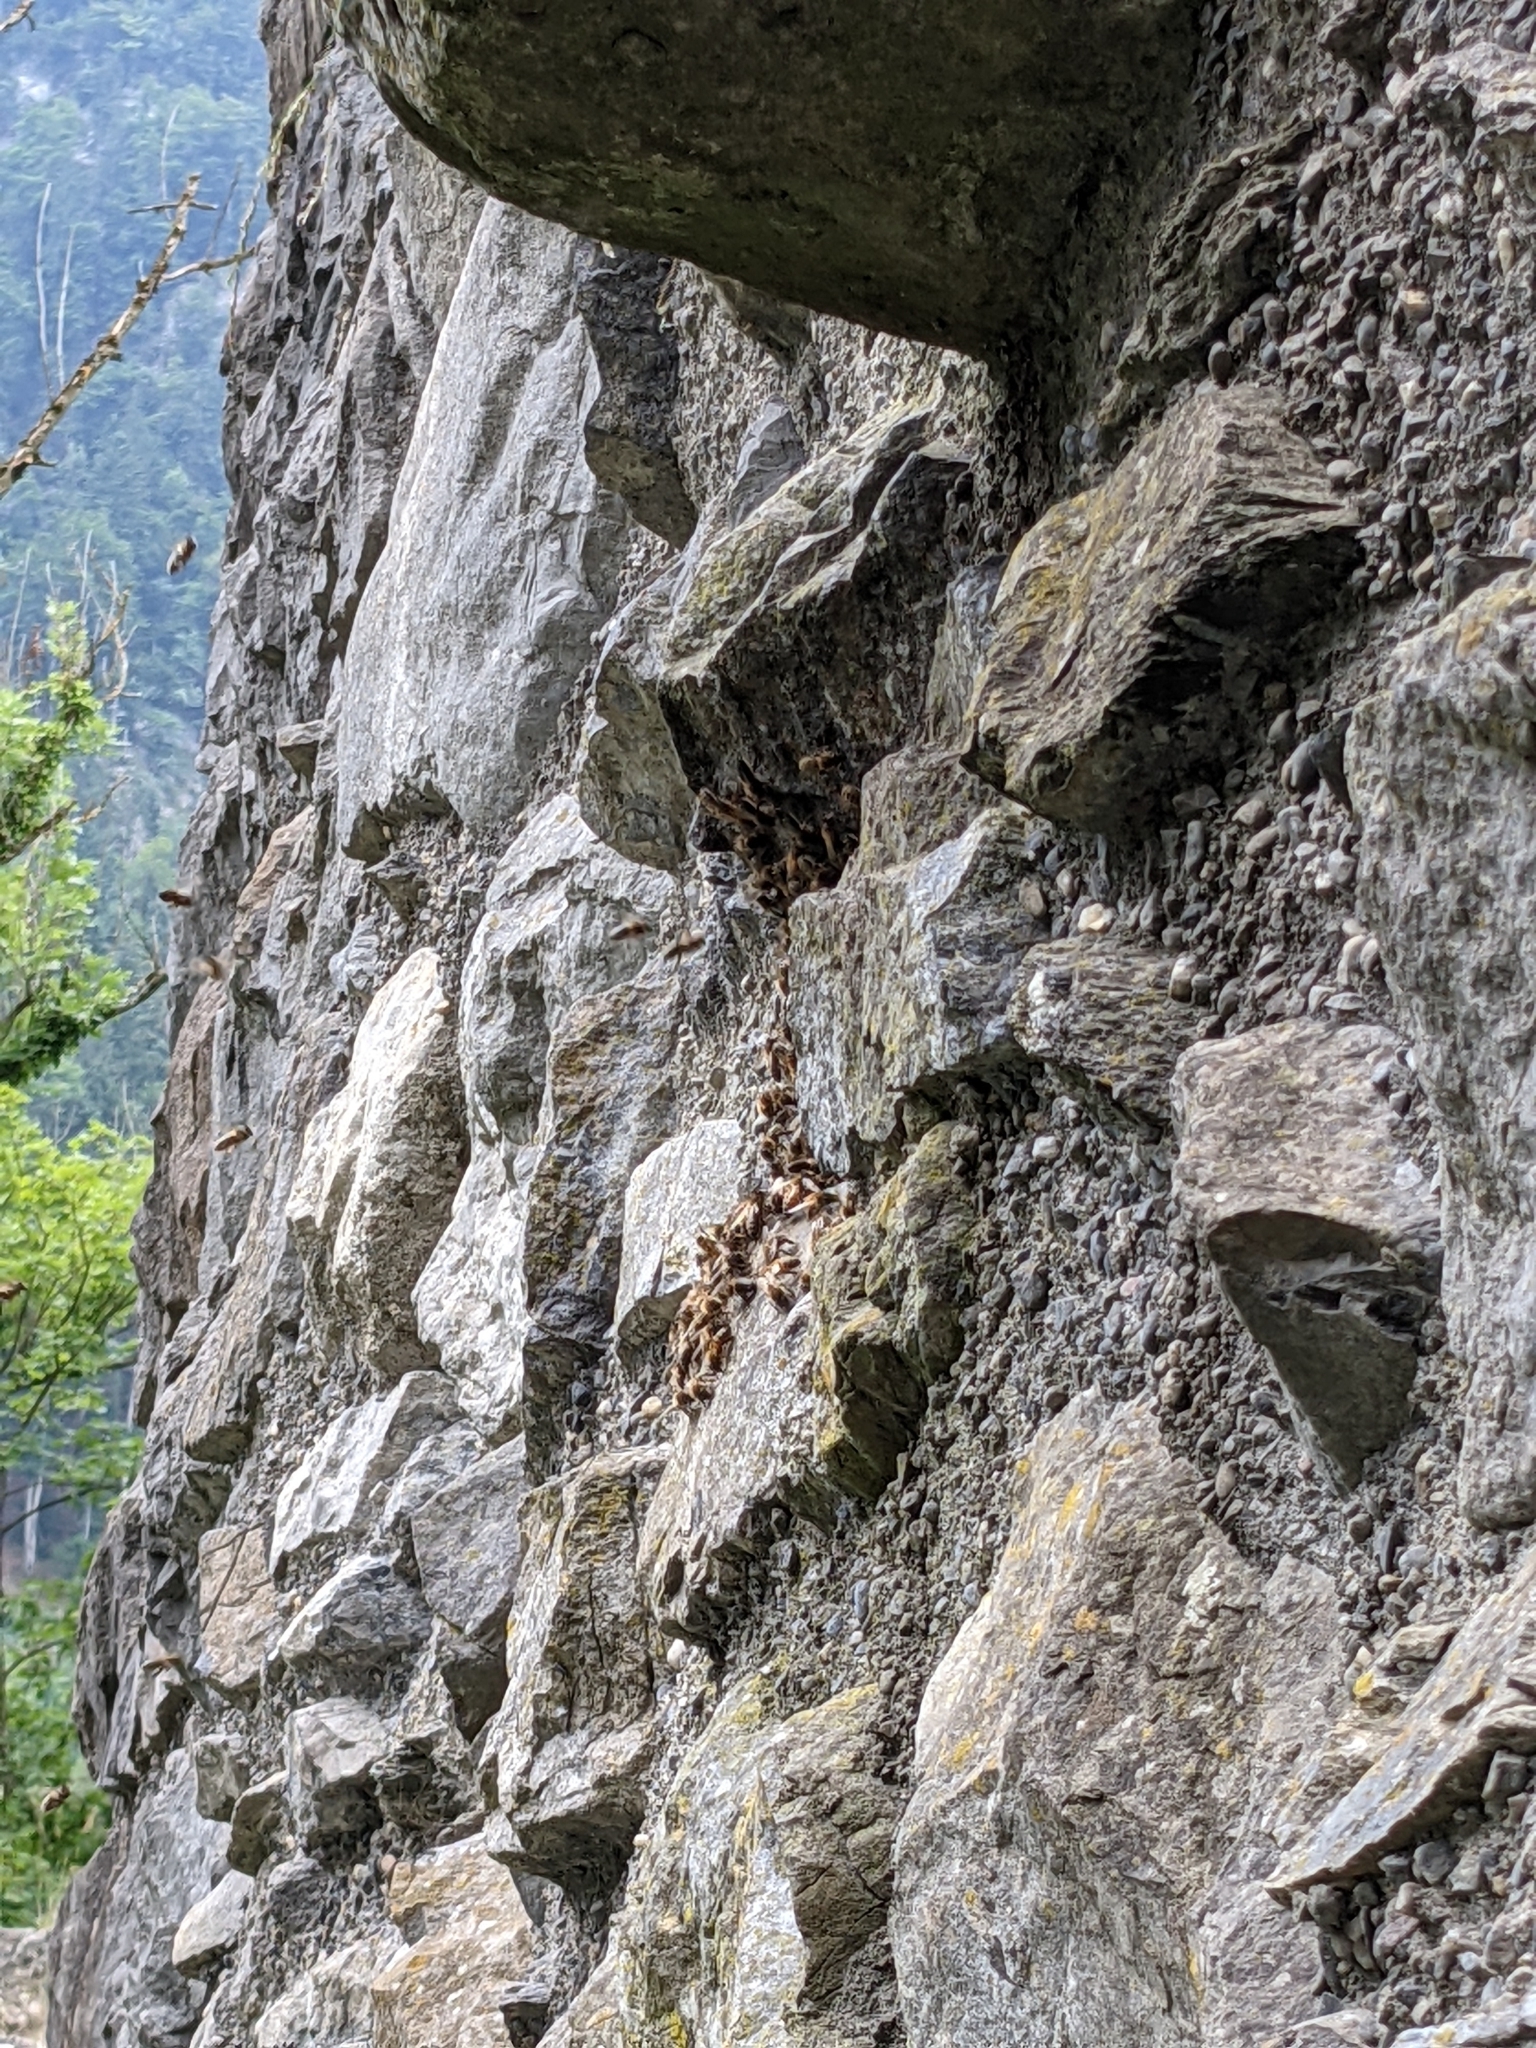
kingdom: Animalia
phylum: Arthropoda
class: Insecta
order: Hymenoptera
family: Apidae
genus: Apis
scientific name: Apis mellifera
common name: Honey bee
